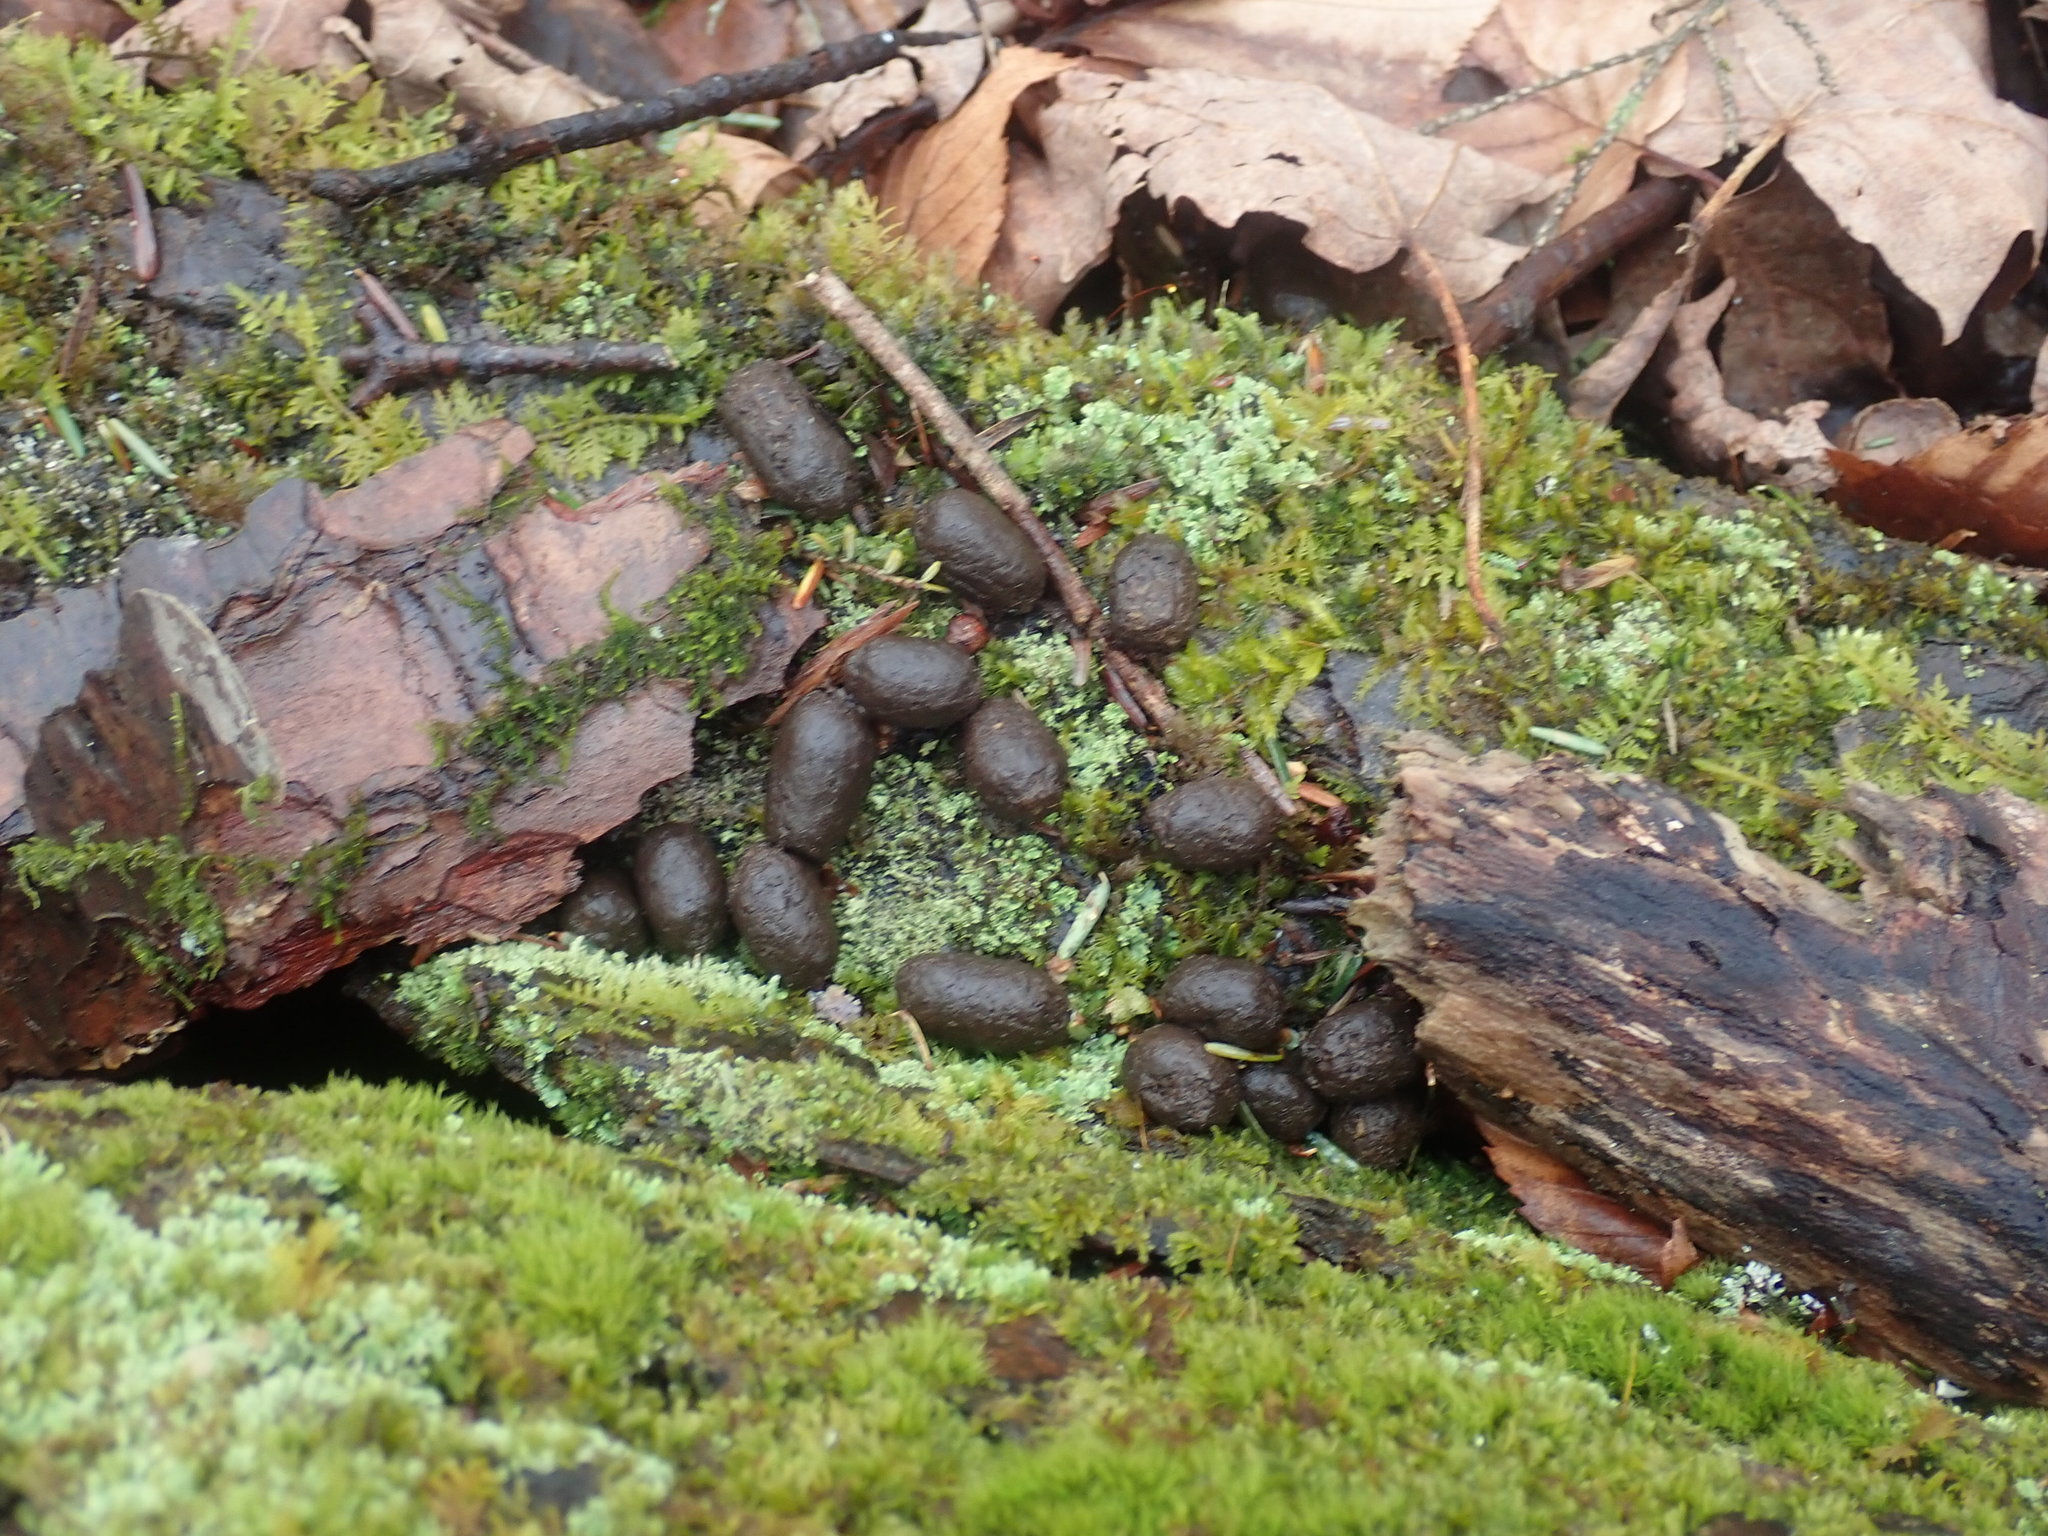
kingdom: Animalia
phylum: Chordata
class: Mammalia
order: Artiodactyla
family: Cervidae
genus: Odocoileus
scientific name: Odocoileus virginianus
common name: White-tailed deer
